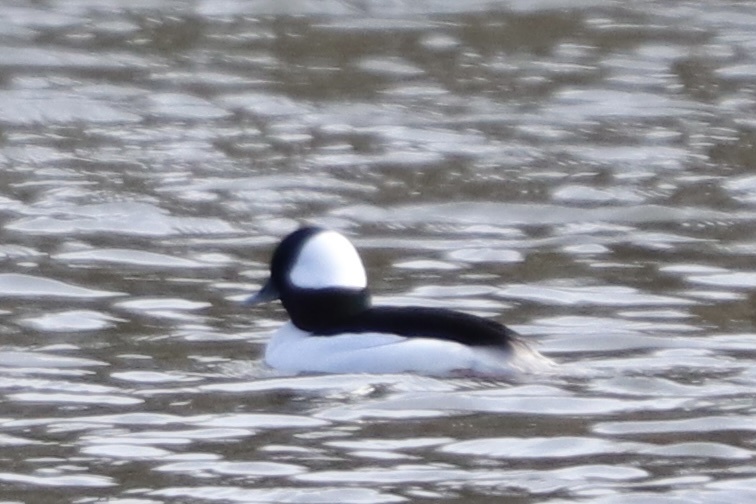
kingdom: Animalia
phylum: Chordata
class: Aves
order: Anseriformes
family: Anatidae
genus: Bucephala
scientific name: Bucephala albeola
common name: Bufflehead
